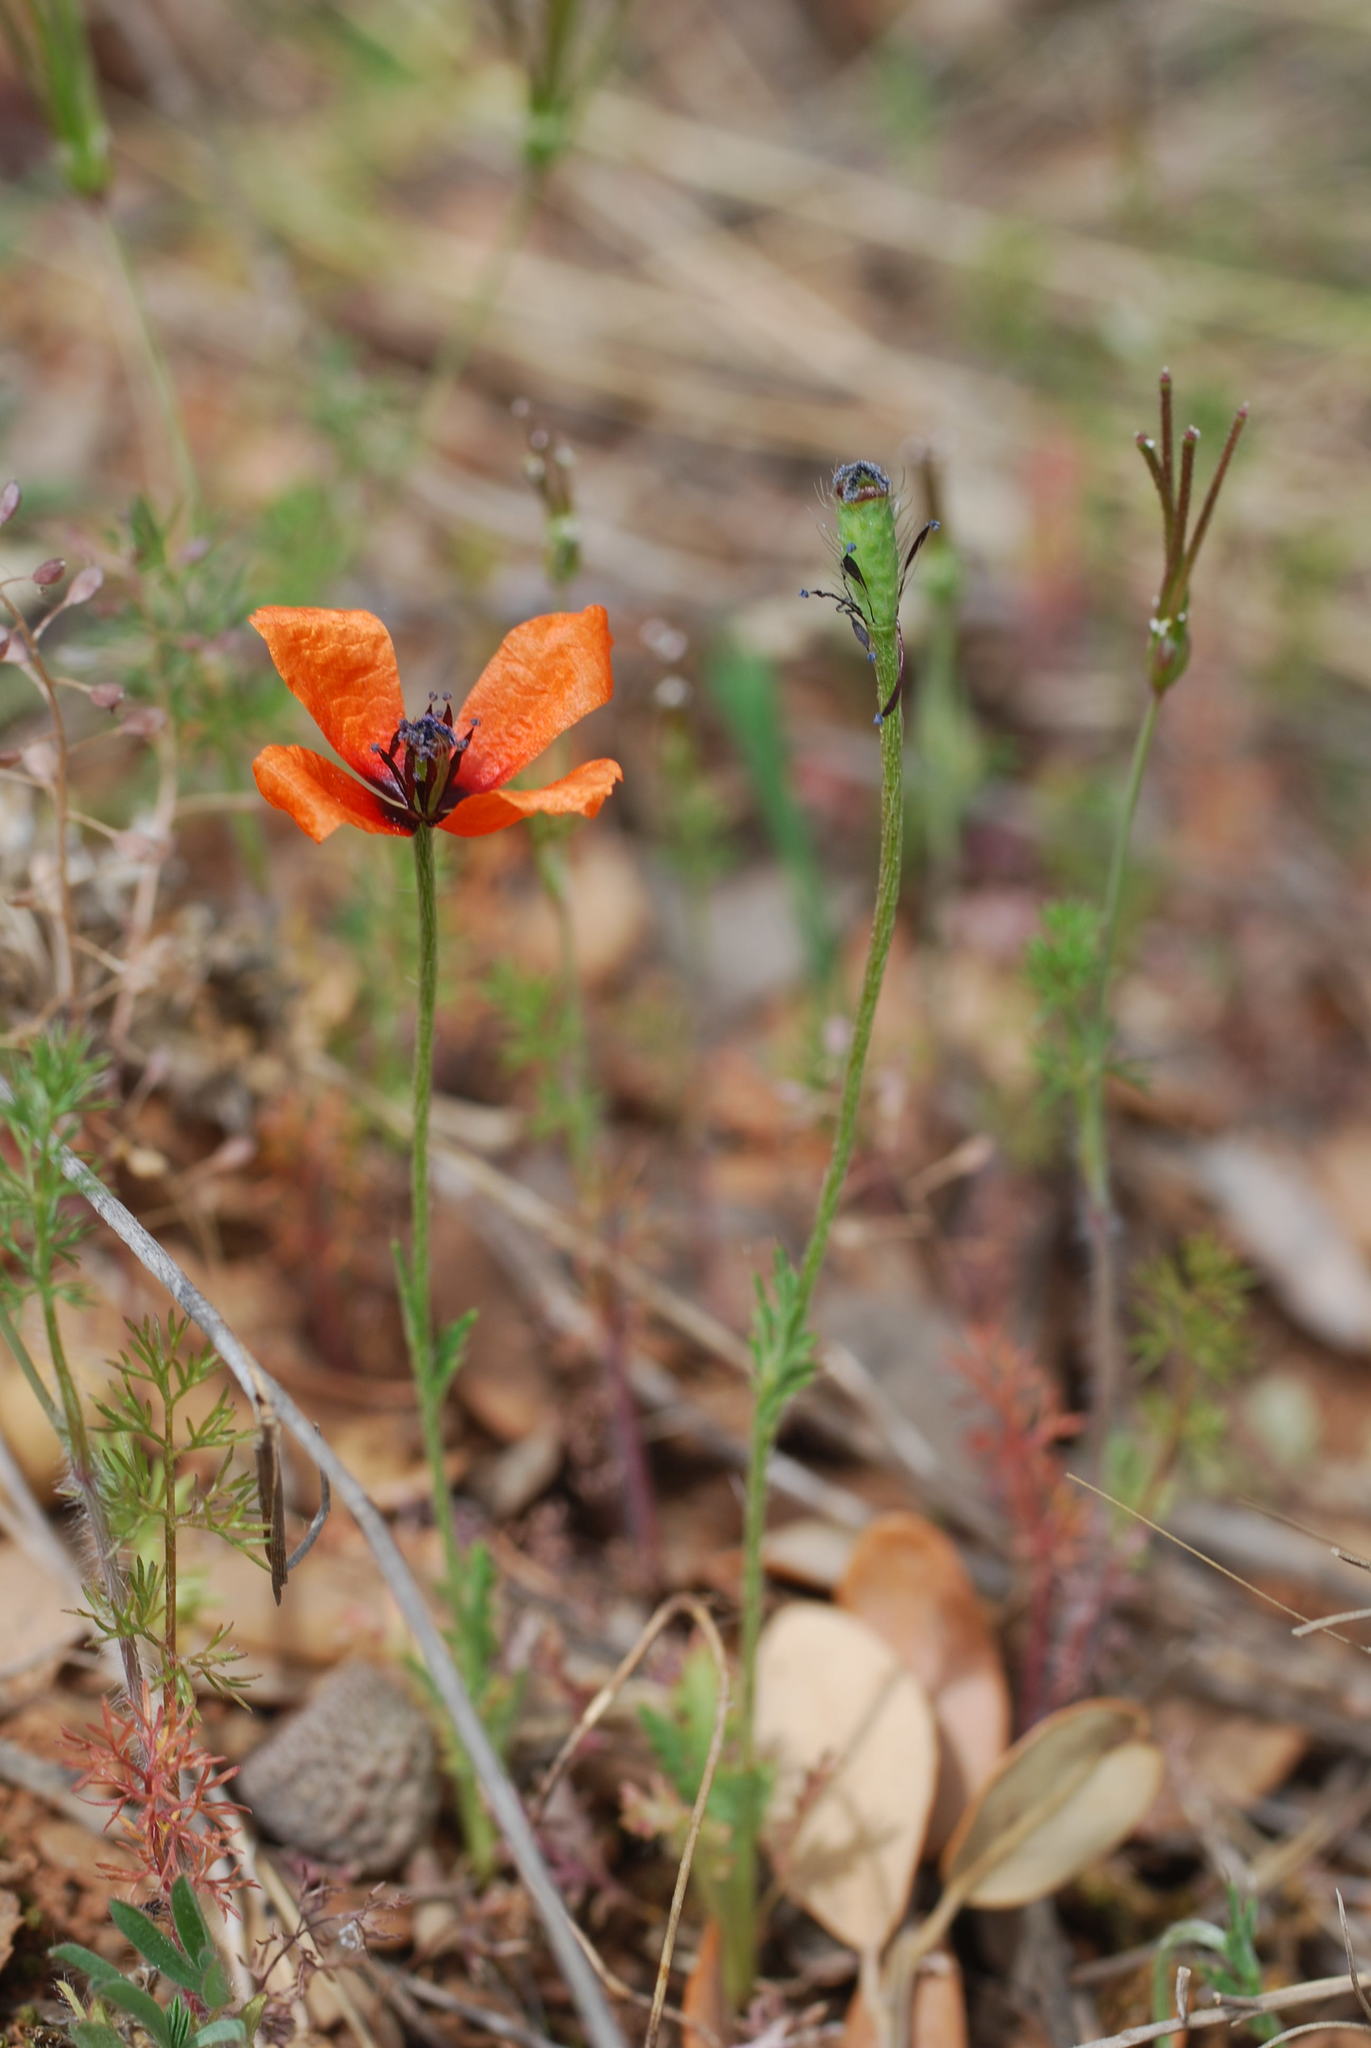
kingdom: Plantae
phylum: Tracheophyta
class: Magnoliopsida
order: Ranunculales
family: Papaveraceae
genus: Roemeria
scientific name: Roemeria argemone
